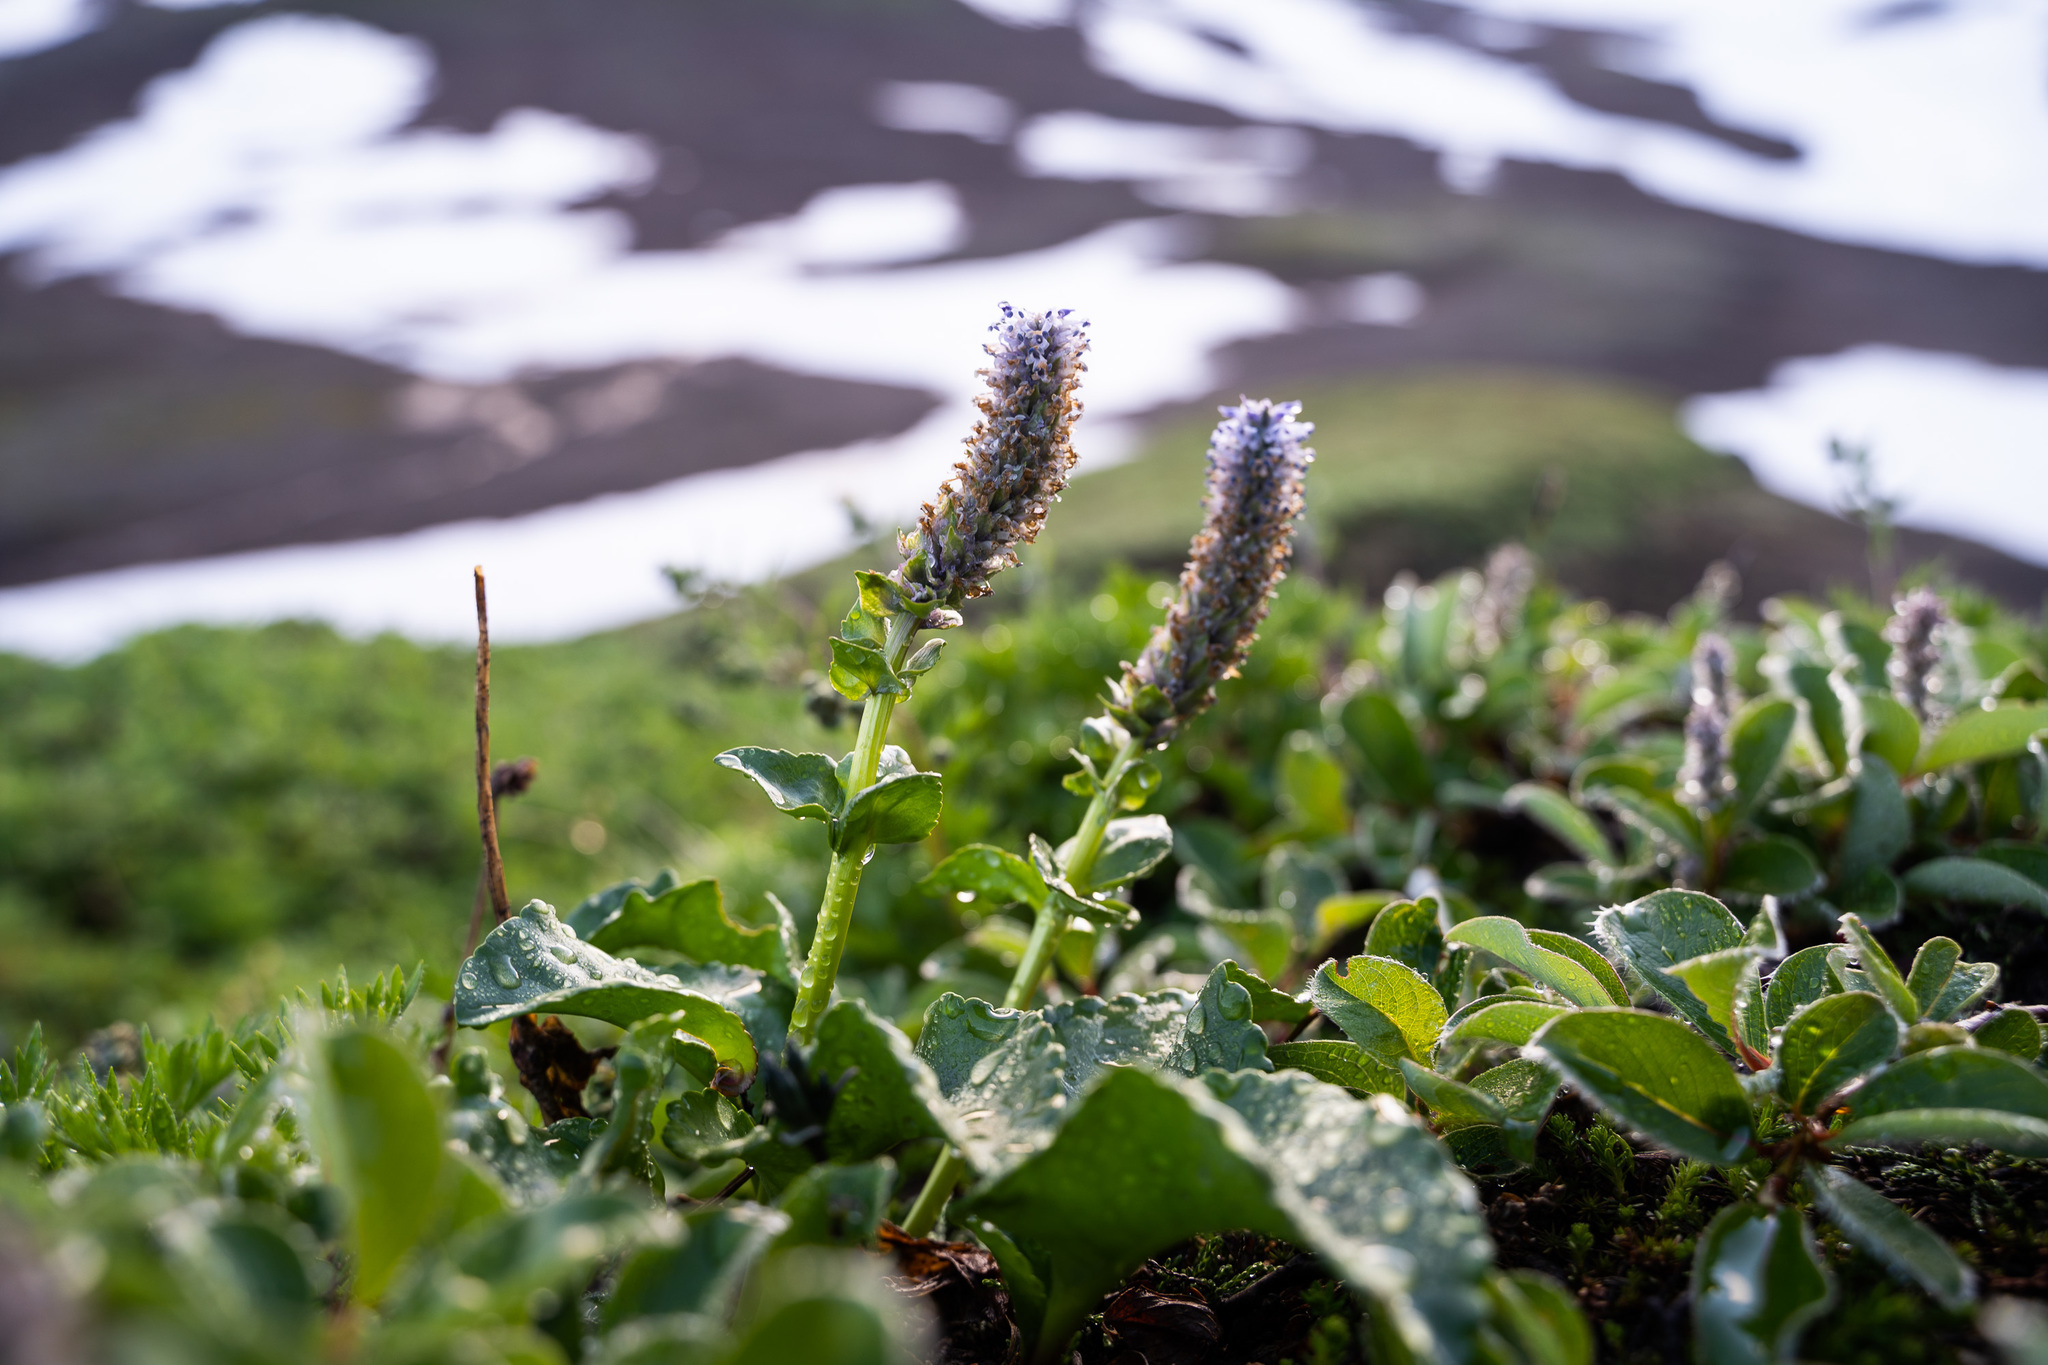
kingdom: Plantae
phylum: Tracheophyta
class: Magnoliopsida
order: Lamiales
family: Plantaginaceae
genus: Lagotis
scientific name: Lagotis glauca
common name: Glaucous weaselsnout
